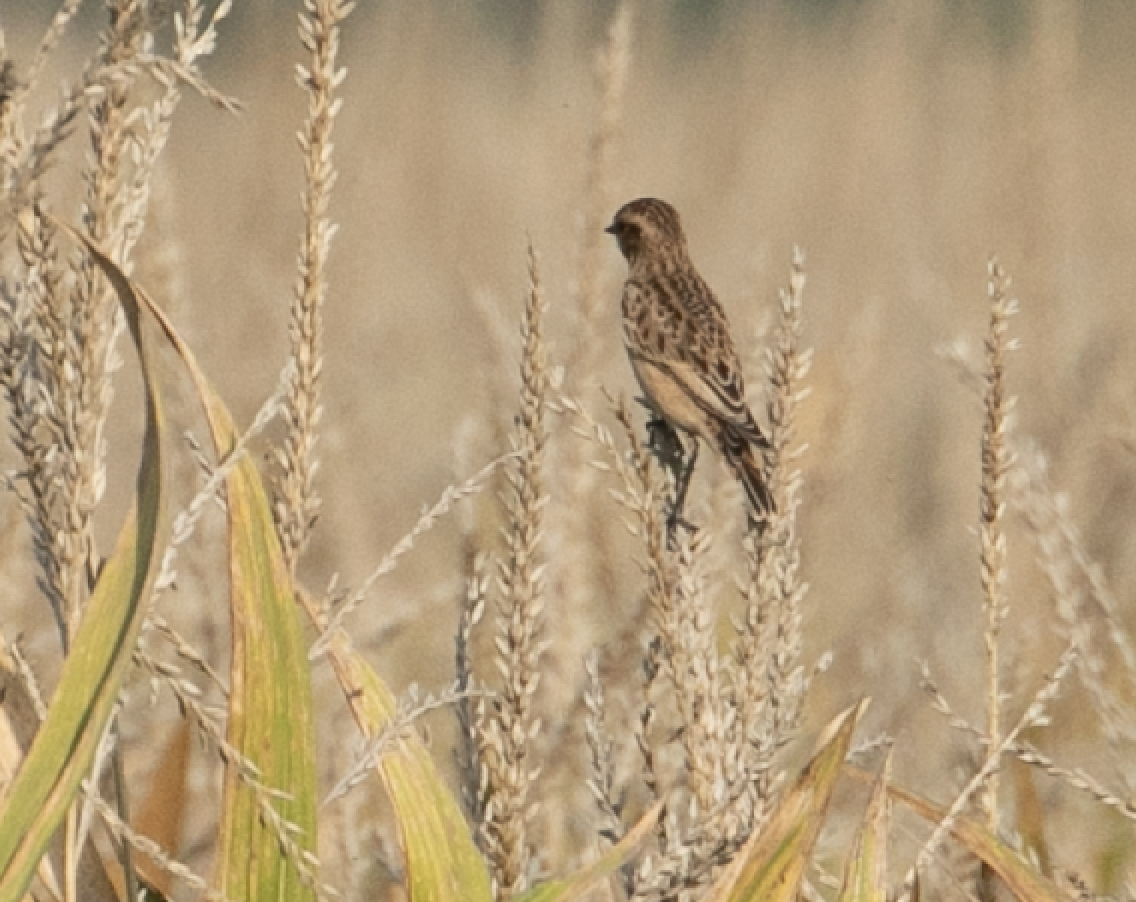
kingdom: Animalia
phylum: Chordata
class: Aves
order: Passeriformes
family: Muscicapidae
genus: Saxicola
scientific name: Saxicola rubetra
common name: Whinchat
